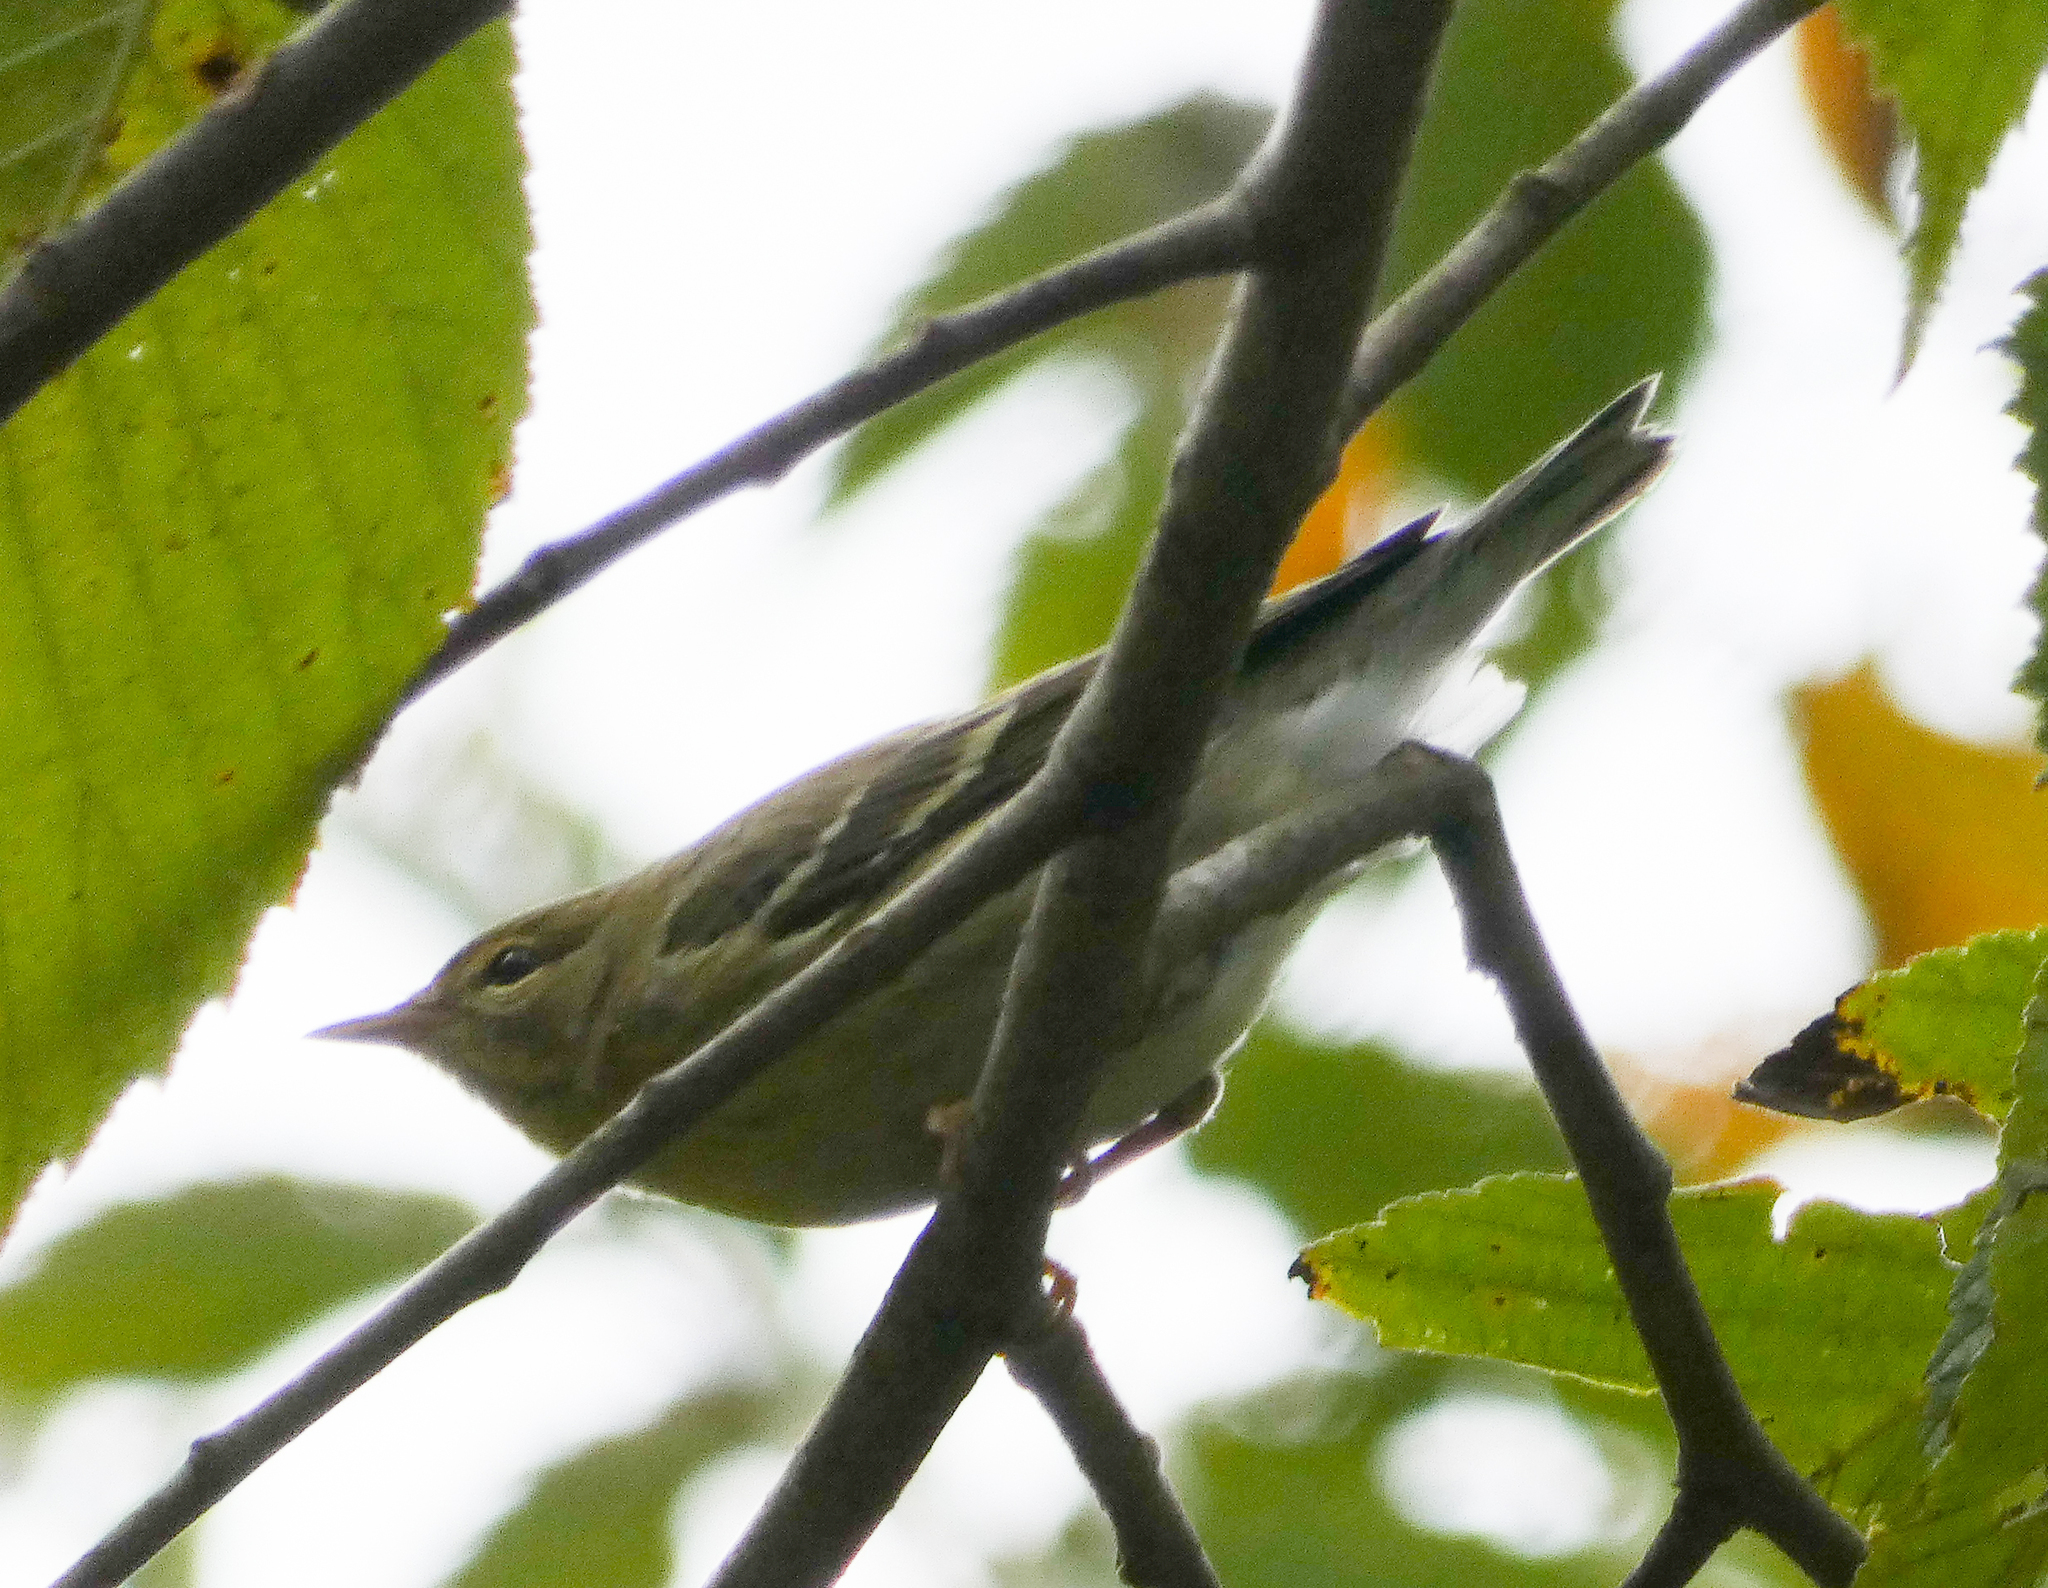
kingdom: Animalia
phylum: Chordata
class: Aves
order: Passeriformes
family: Parulidae
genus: Setophaga
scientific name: Setophaga striata
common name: Blackpoll warbler
